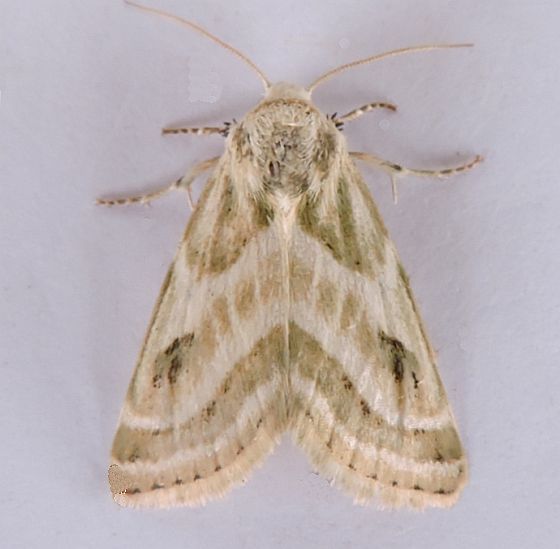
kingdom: Animalia
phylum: Arthropoda
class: Insecta
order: Lepidoptera
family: Noctuidae
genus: Schinia
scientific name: Schinia accessa
